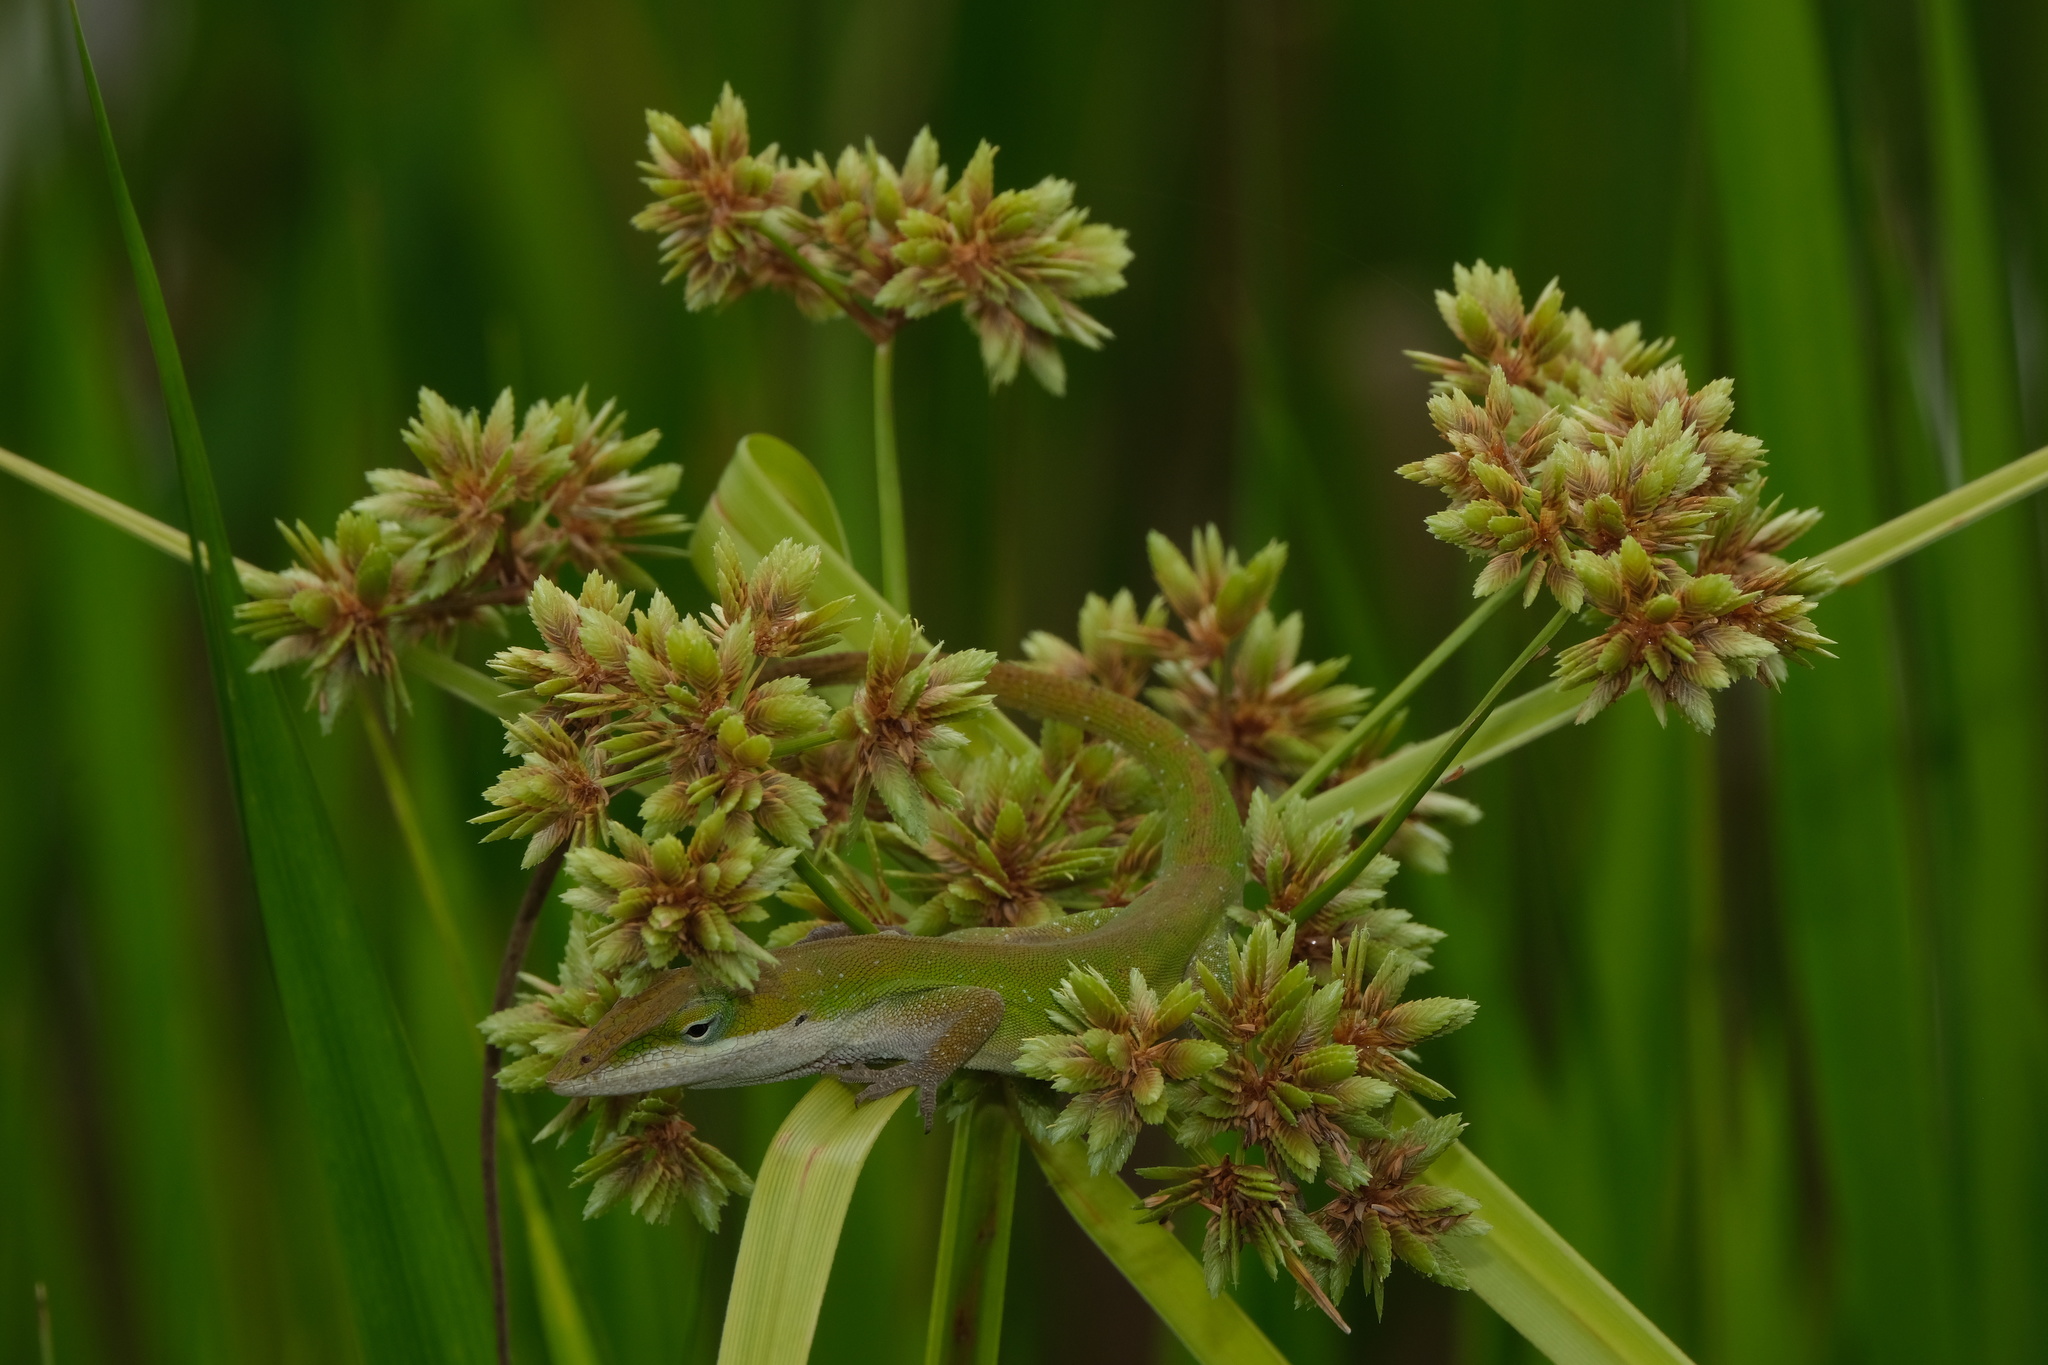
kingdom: Animalia
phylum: Chordata
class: Squamata
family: Dactyloidae
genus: Anolis
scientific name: Anolis carolinensis
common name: Green anole
